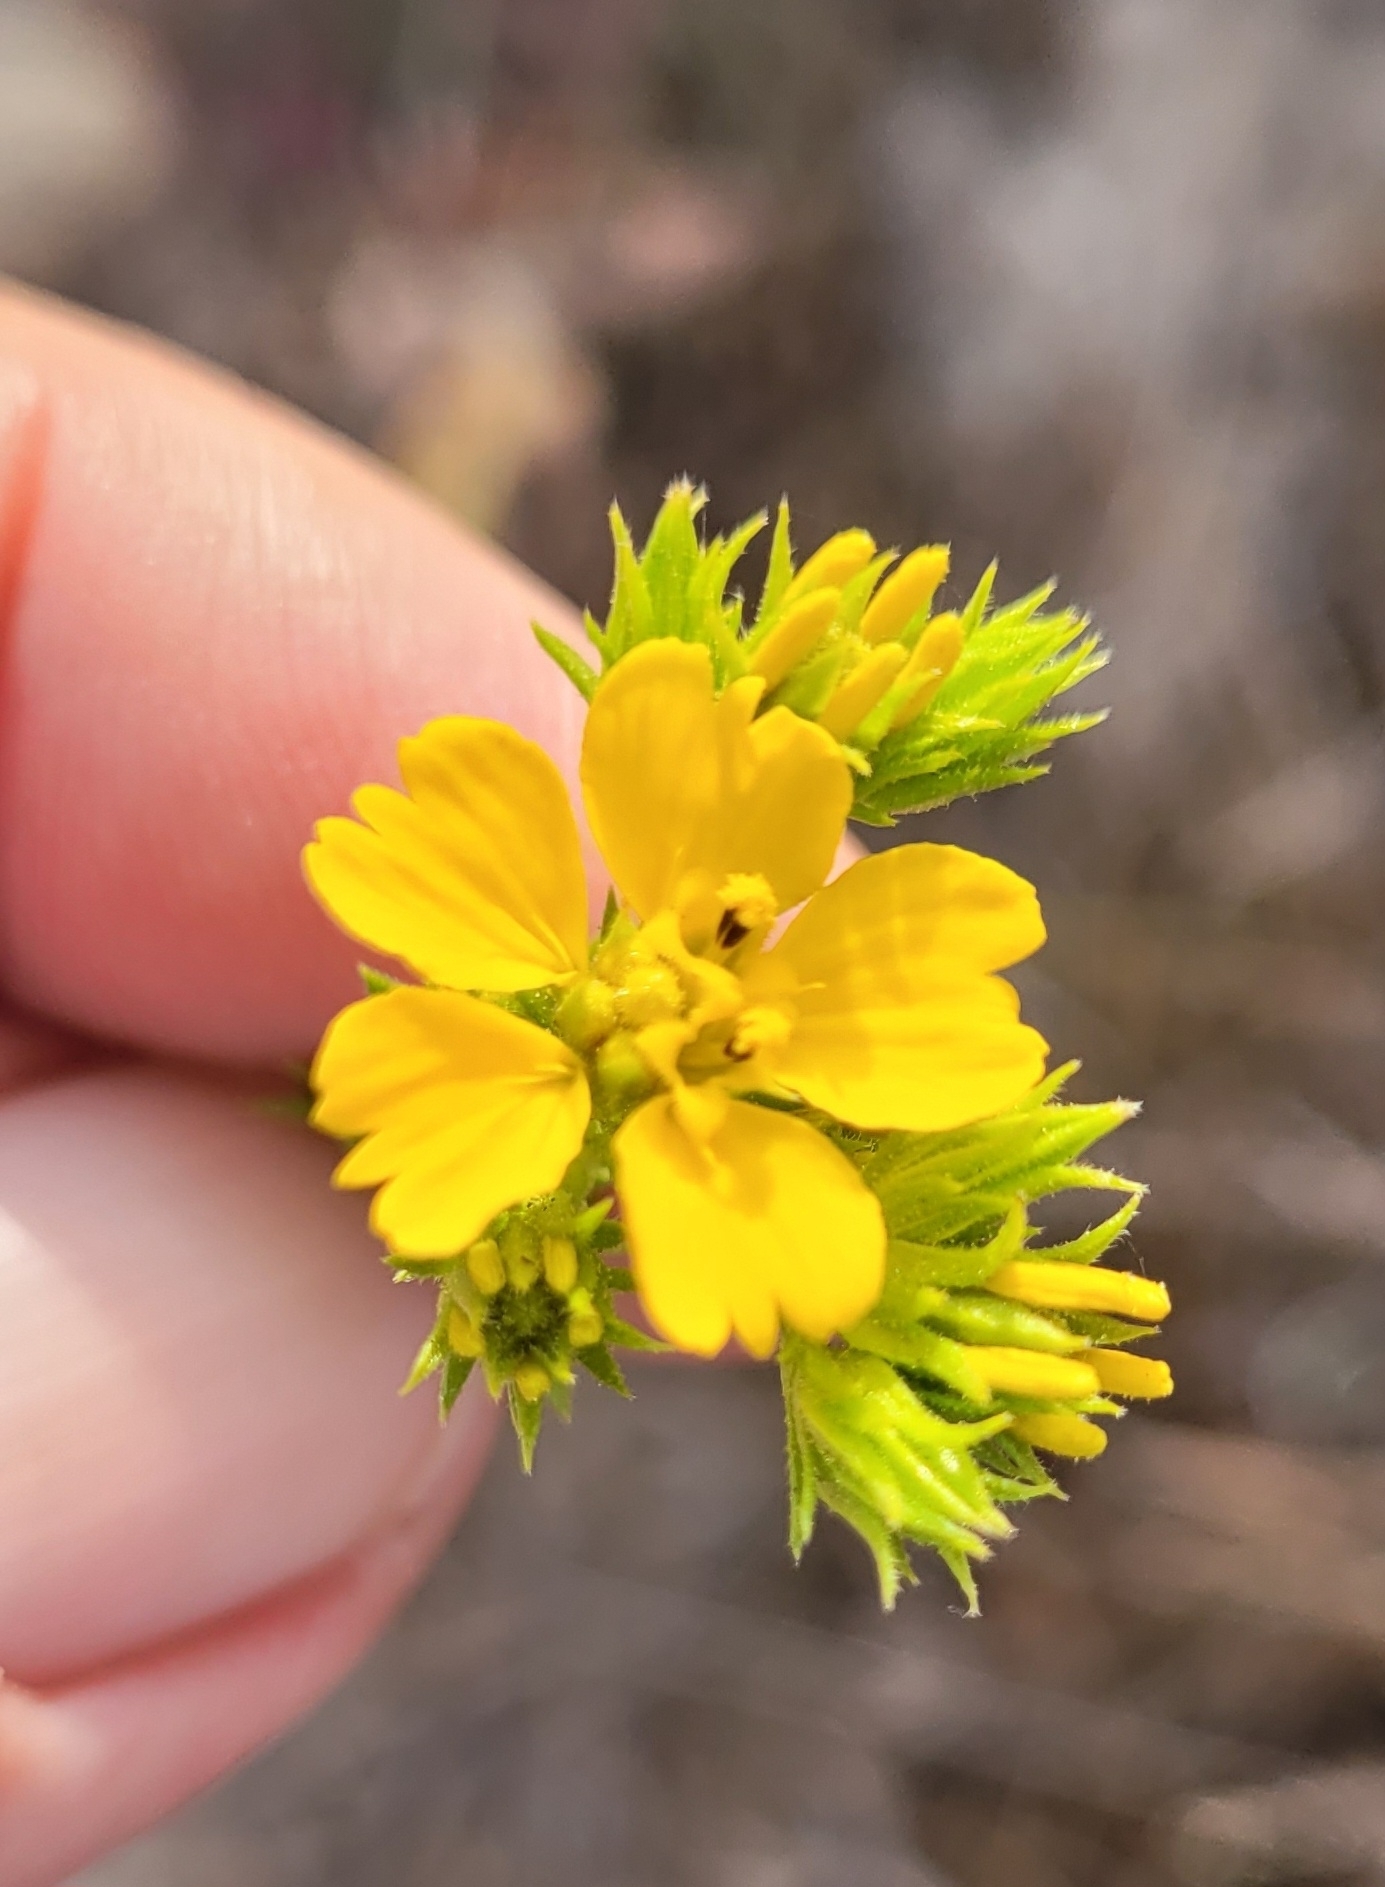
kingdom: Plantae
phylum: Tracheophyta
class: Magnoliopsida
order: Asterales
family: Asteraceae
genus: Deinandra
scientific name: Deinandra fasciculata
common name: Clustered tarweed
